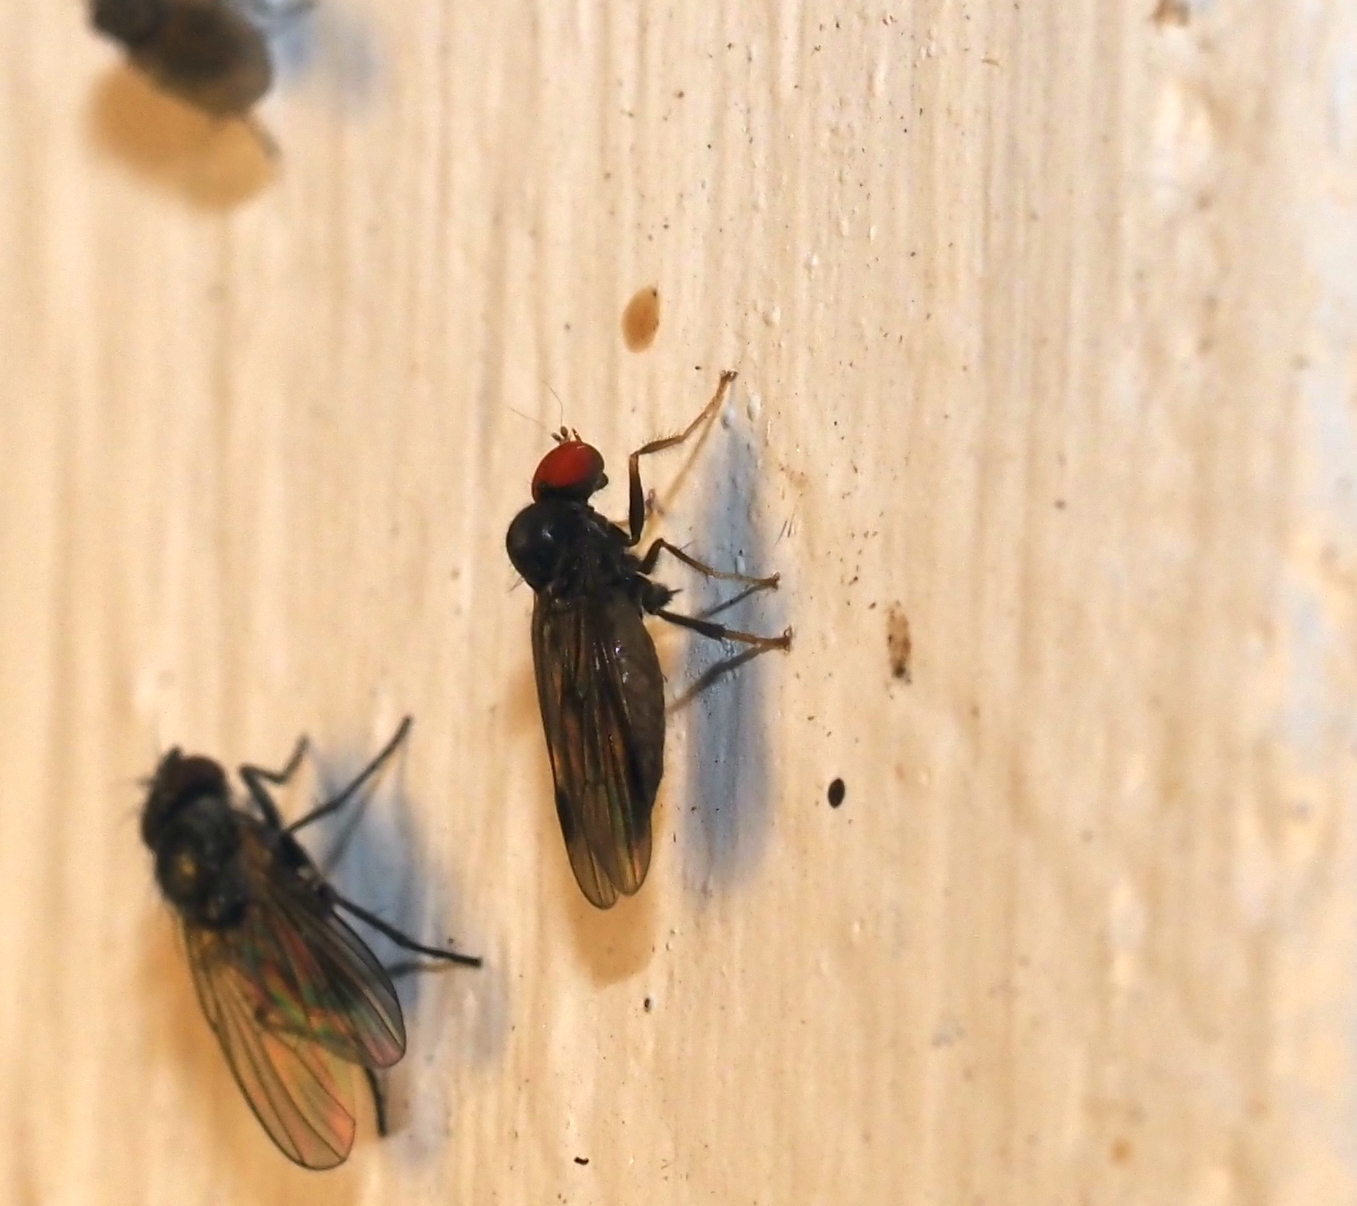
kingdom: Animalia
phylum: Arthropoda
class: Insecta
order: Diptera
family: Hybotidae
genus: Syneches
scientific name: Syneches thoracicus
